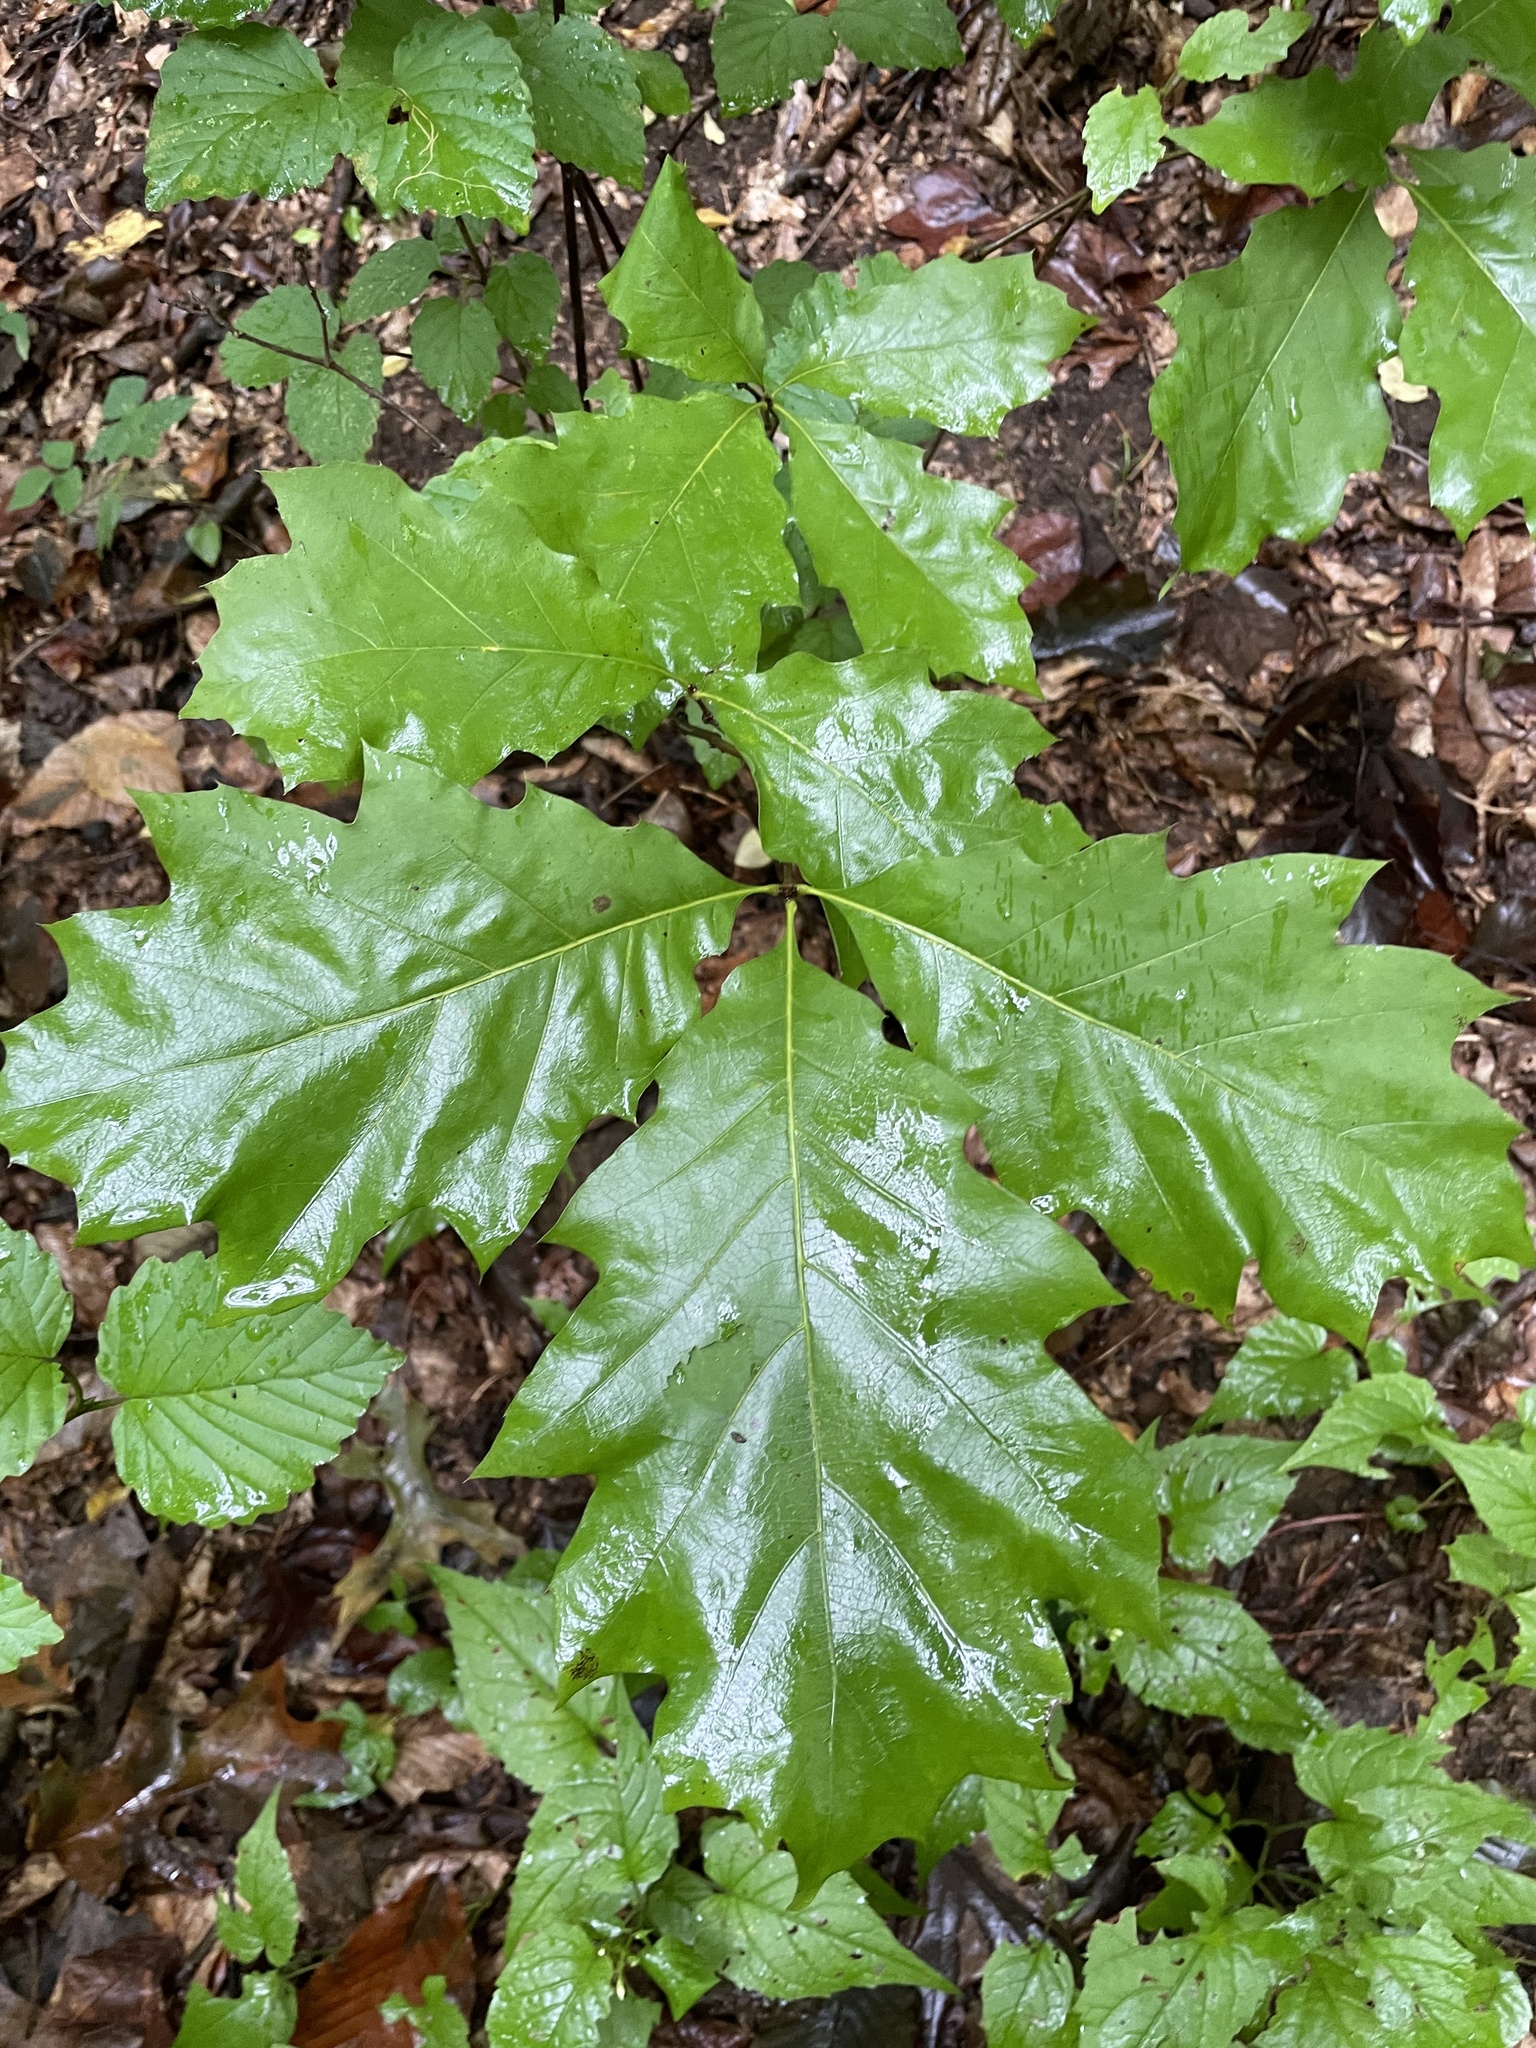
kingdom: Plantae
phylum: Tracheophyta
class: Magnoliopsida
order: Fagales
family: Fagaceae
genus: Quercus
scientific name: Quercus rubra
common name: Red oak
